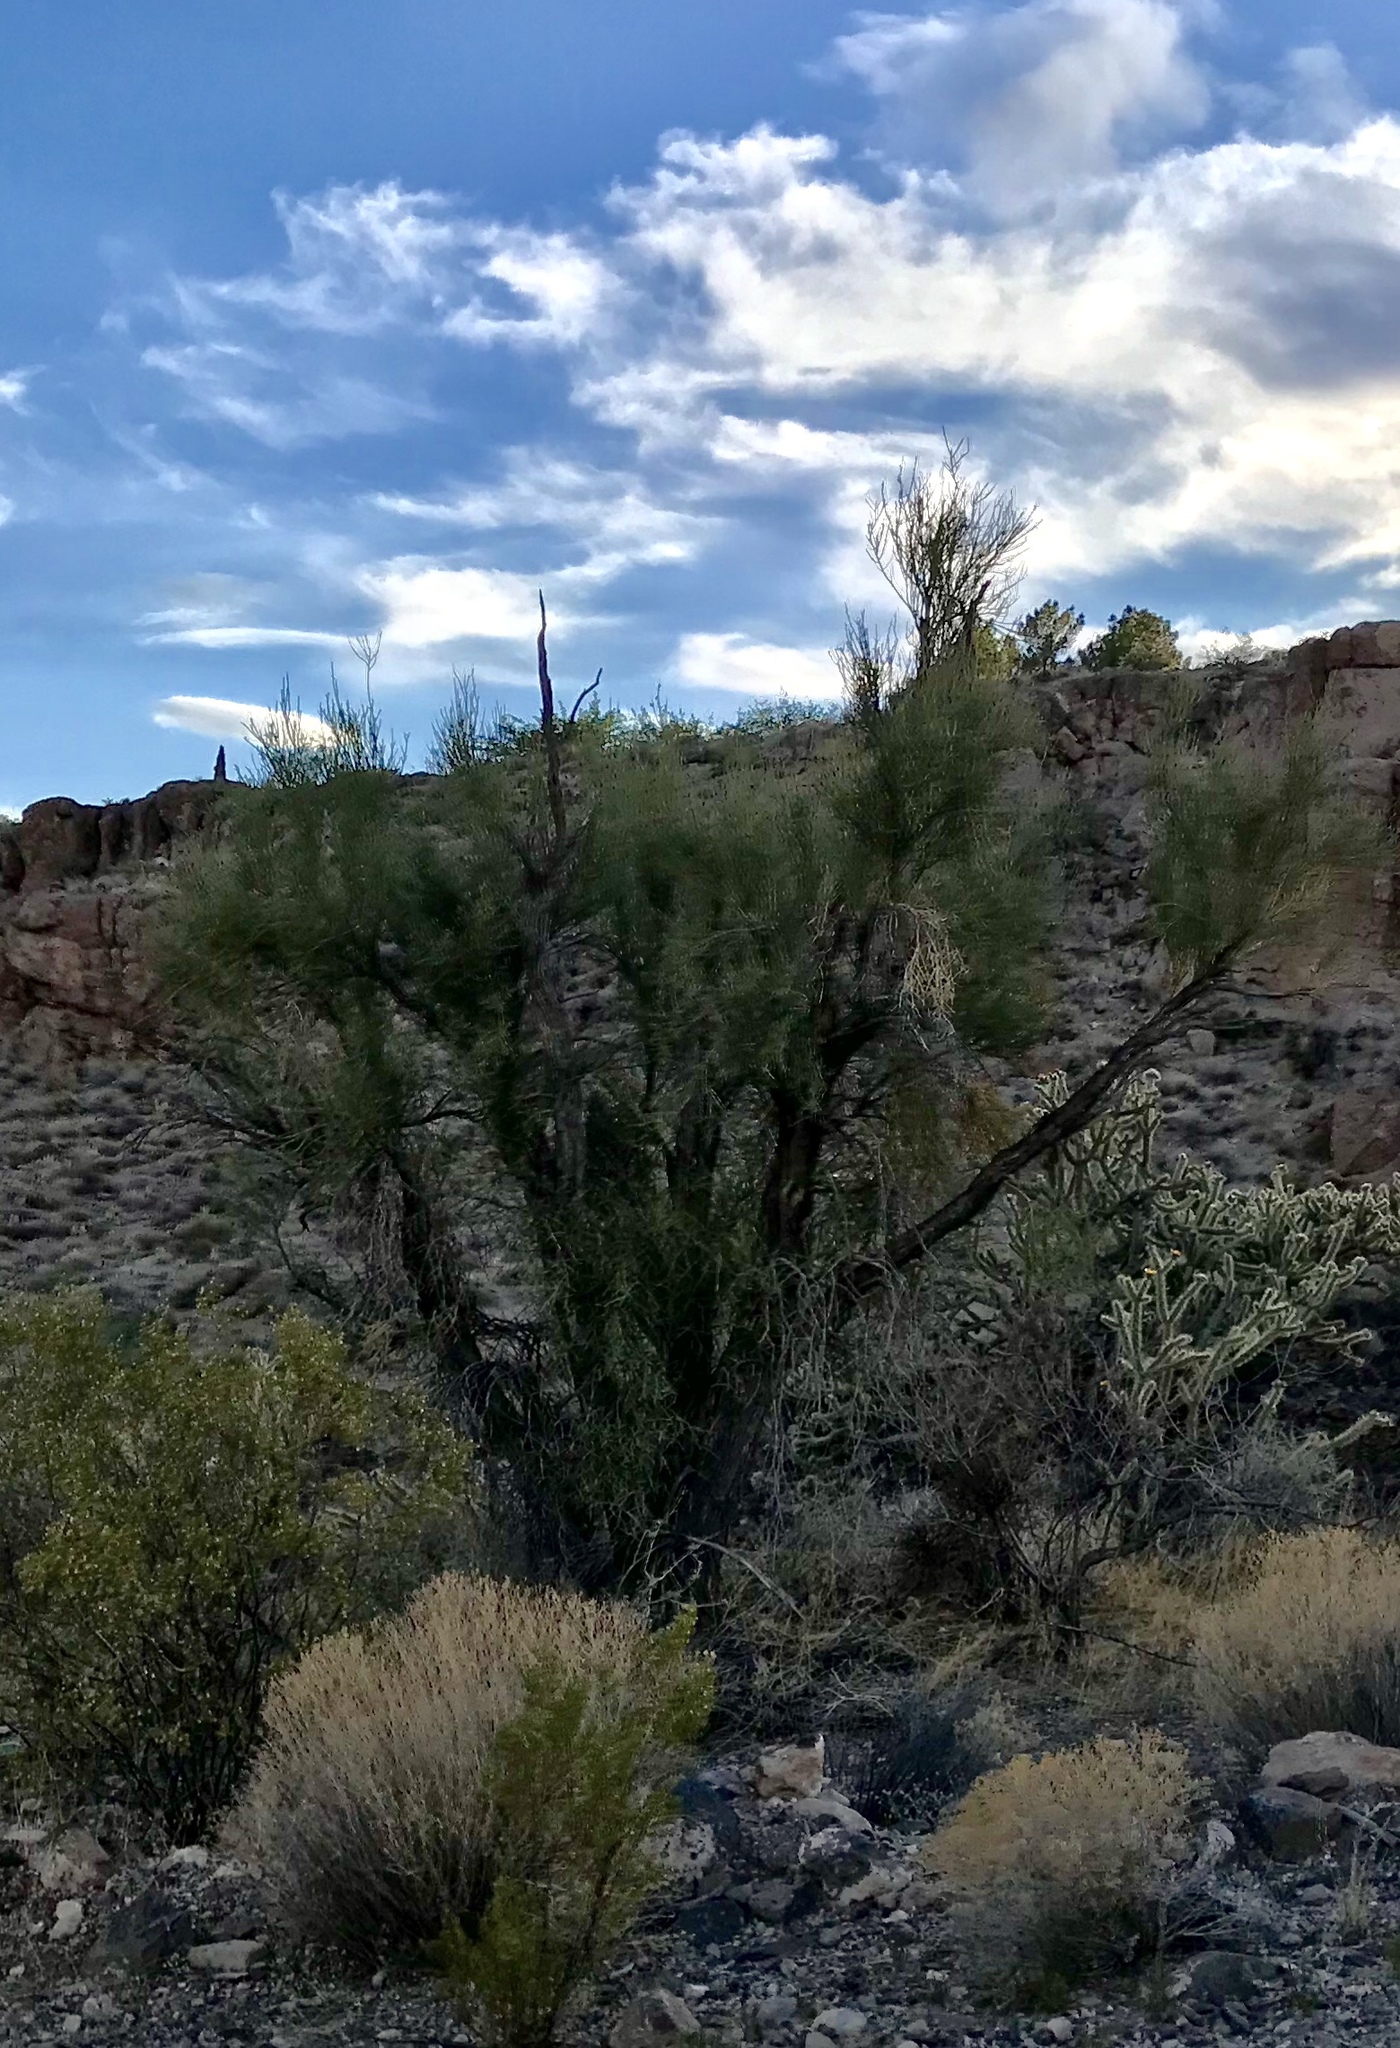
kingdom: Plantae
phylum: Tracheophyta
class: Magnoliopsida
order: Celastrales
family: Celastraceae
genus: Canotia
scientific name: Canotia holacantha
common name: Crucifixion thorns
